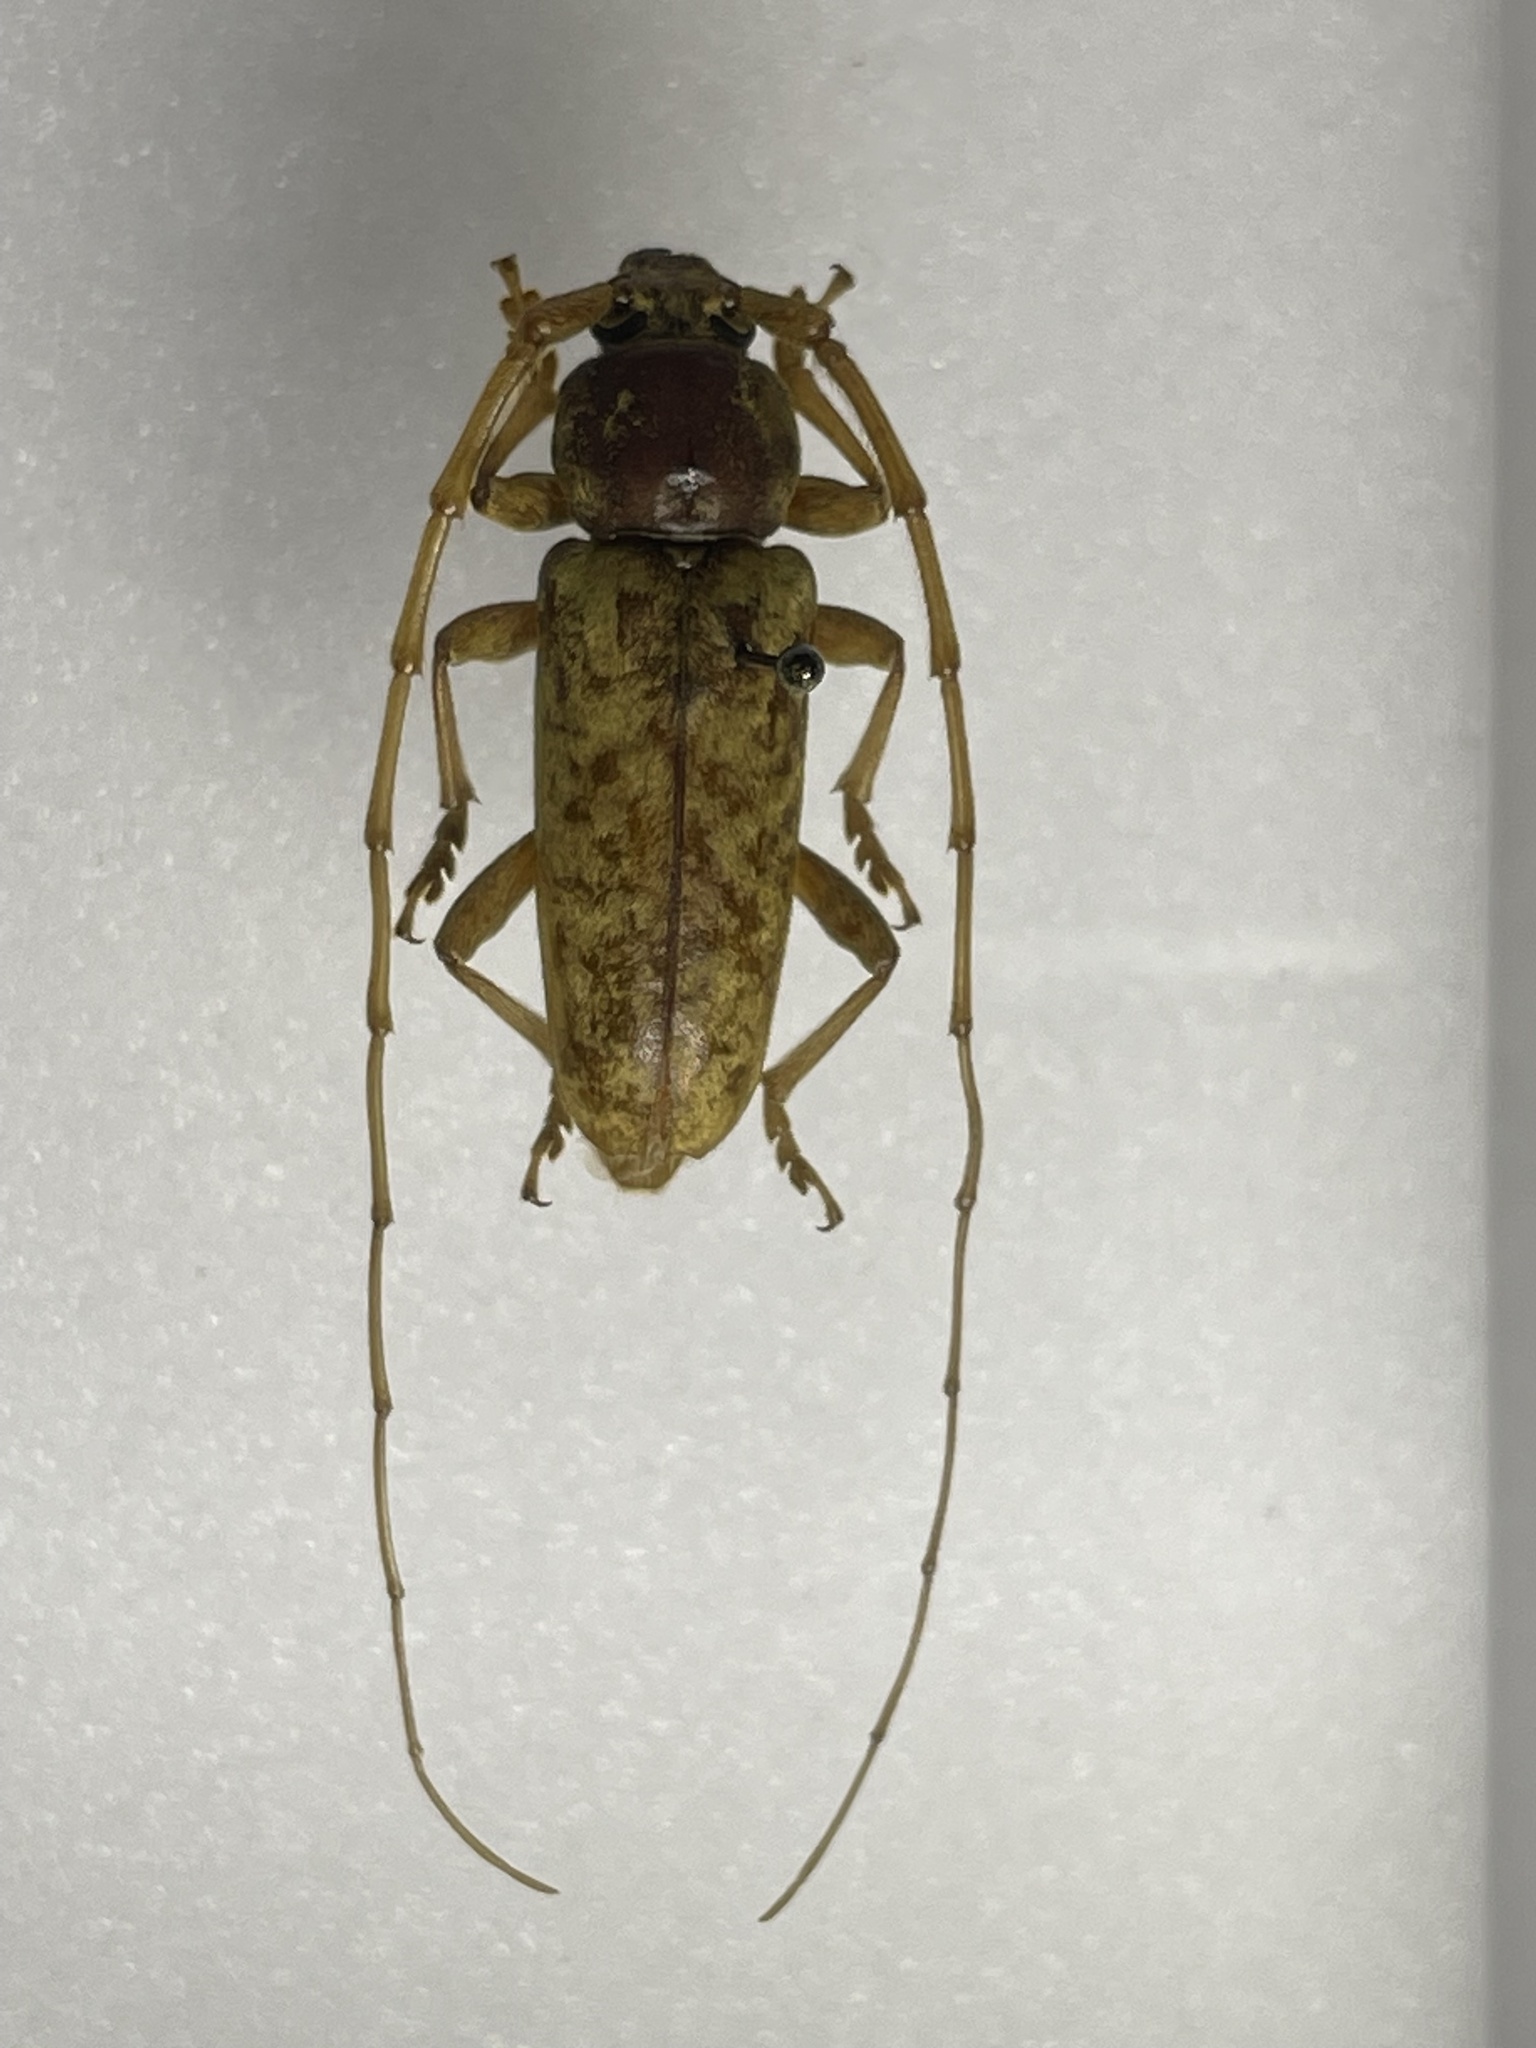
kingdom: Animalia
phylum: Arthropoda
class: Insecta
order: Coleoptera
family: Cerambycidae
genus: Enaphalodes
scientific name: Enaphalodes rufulus
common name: Red oak borer
